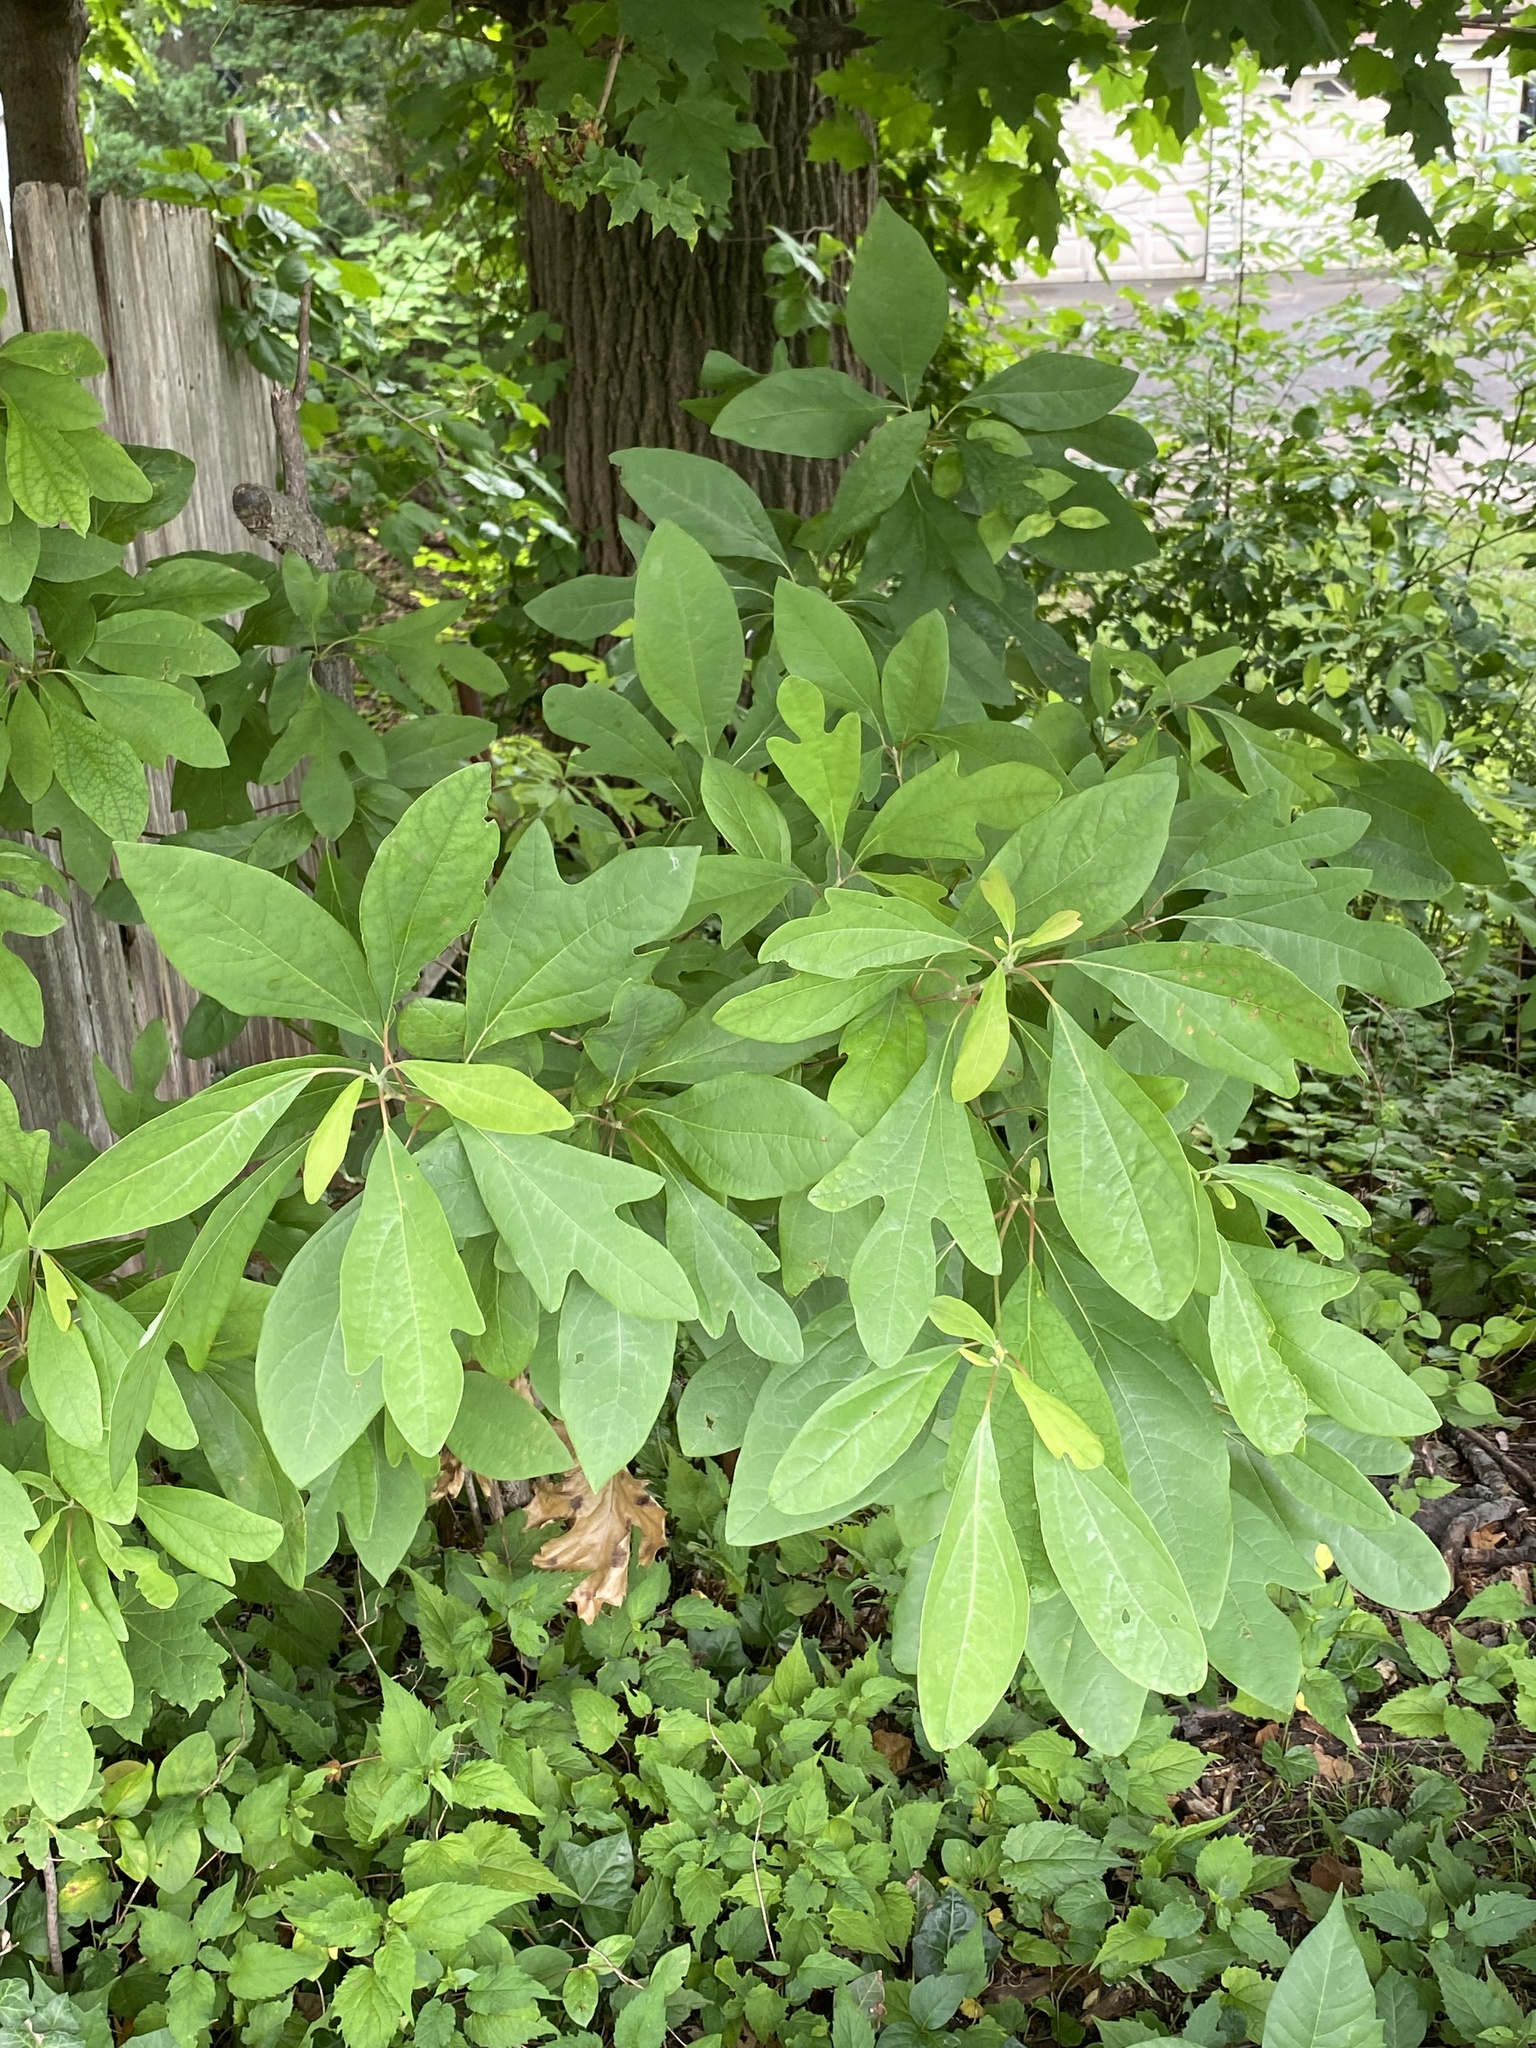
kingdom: Plantae
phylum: Tracheophyta
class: Magnoliopsida
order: Laurales
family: Lauraceae
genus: Sassafras
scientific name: Sassafras albidum
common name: Sassafras
